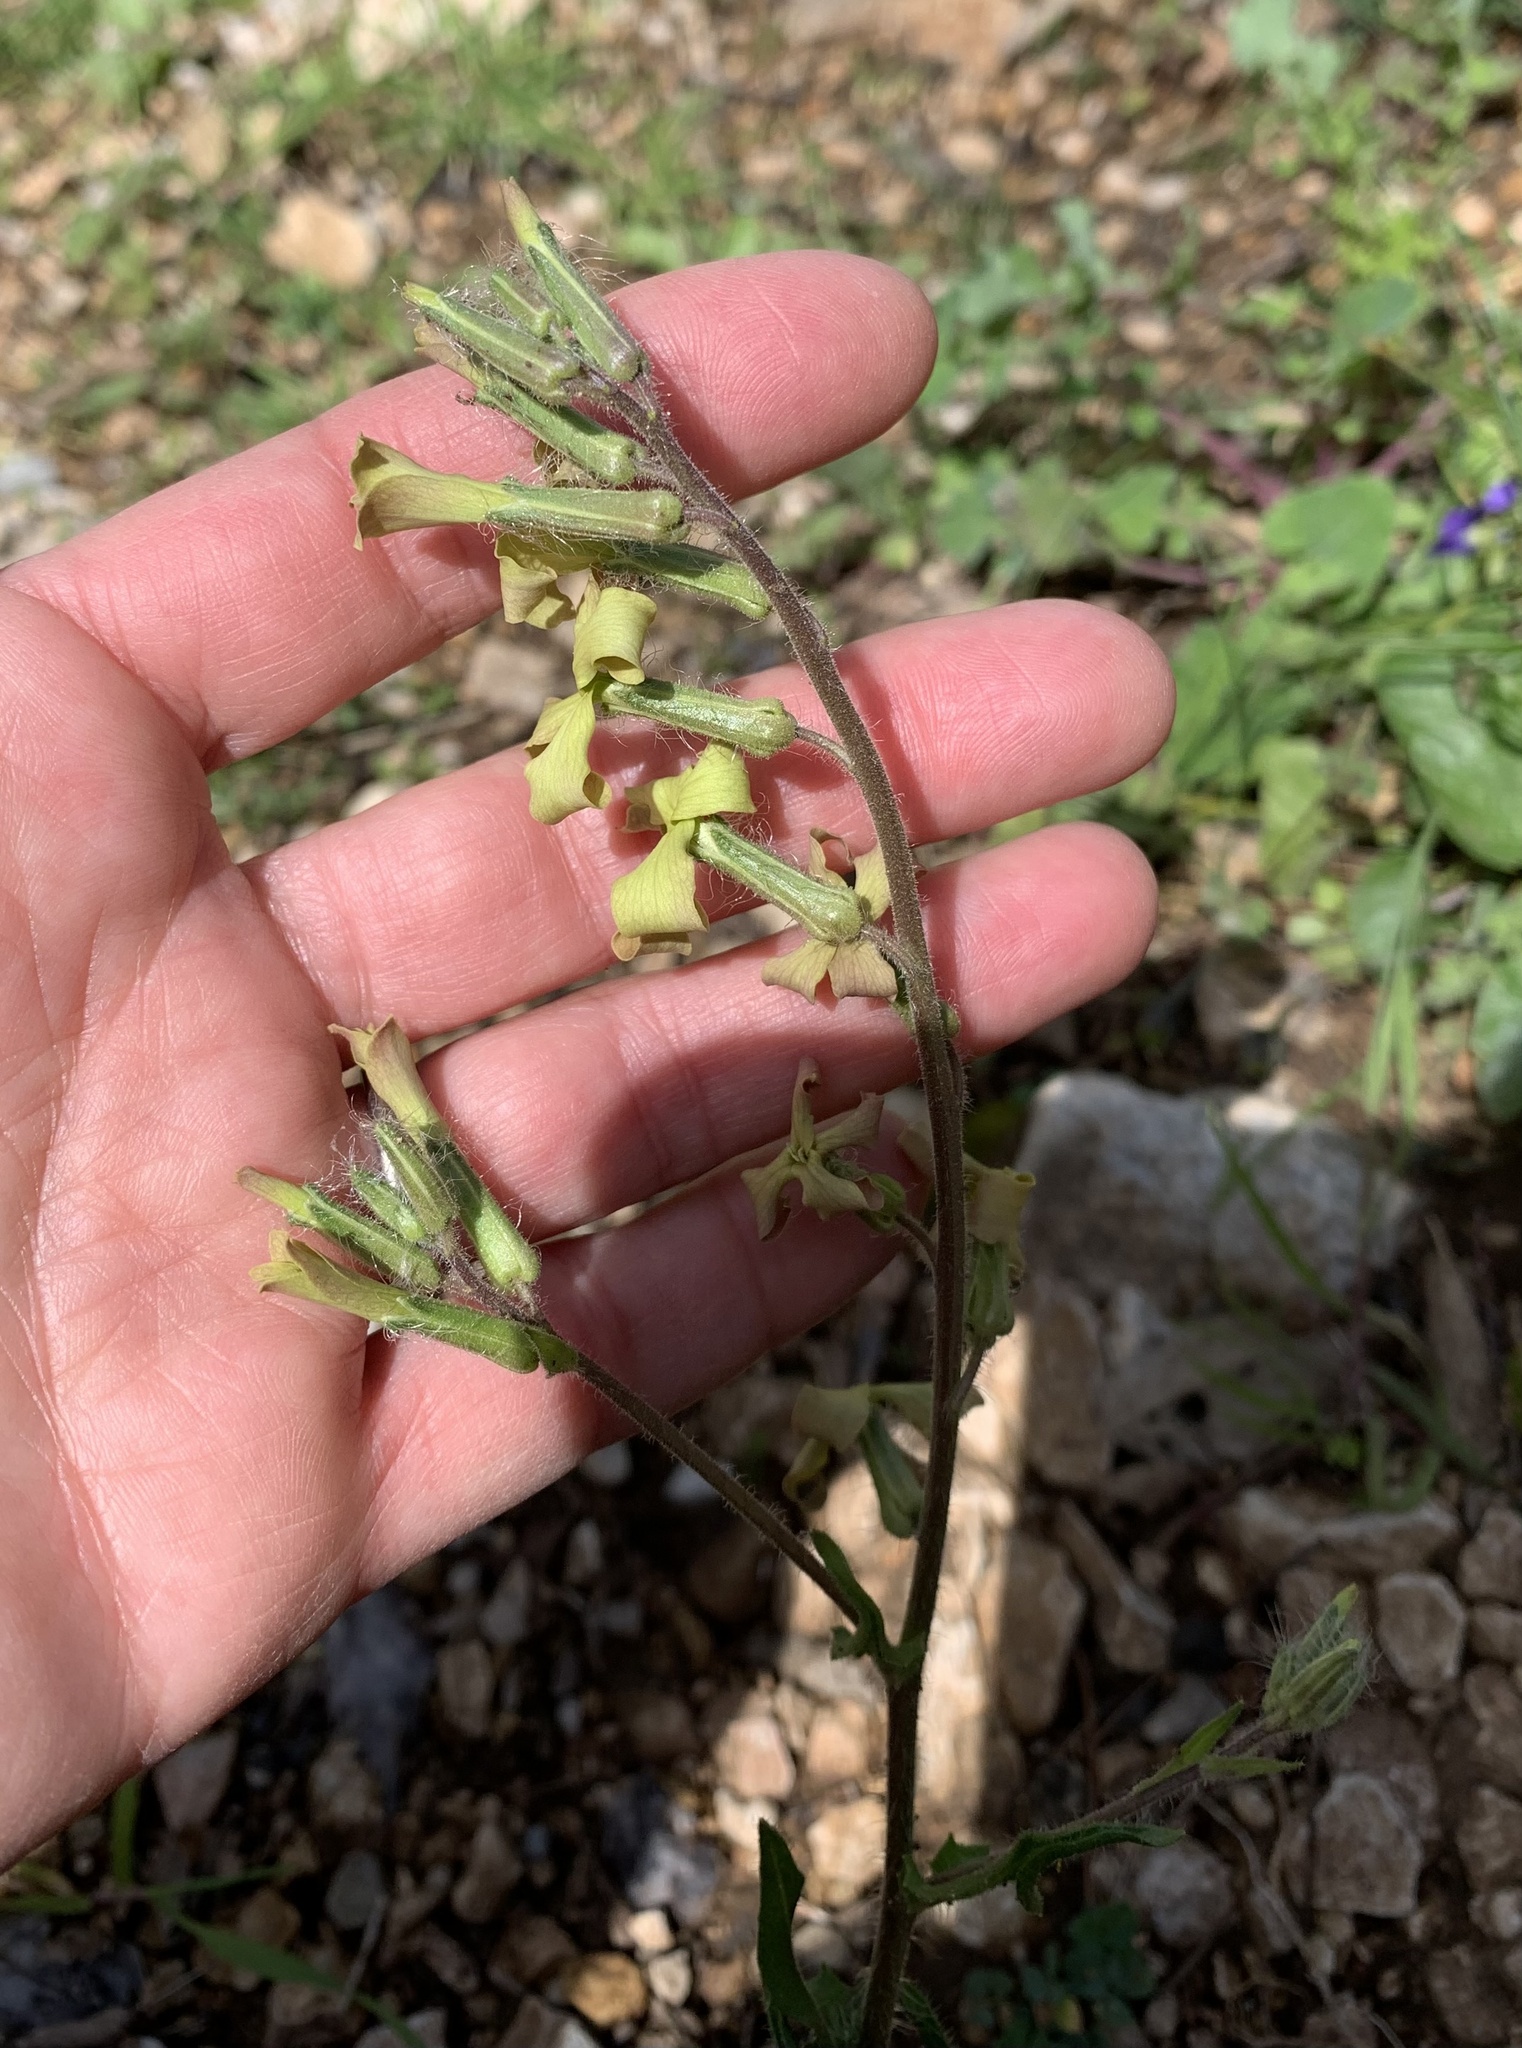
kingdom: Plantae
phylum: Tracheophyta
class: Magnoliopsida
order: Brassicales
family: Brassicaceae
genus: Hesperis
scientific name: Hesperis laciniata
